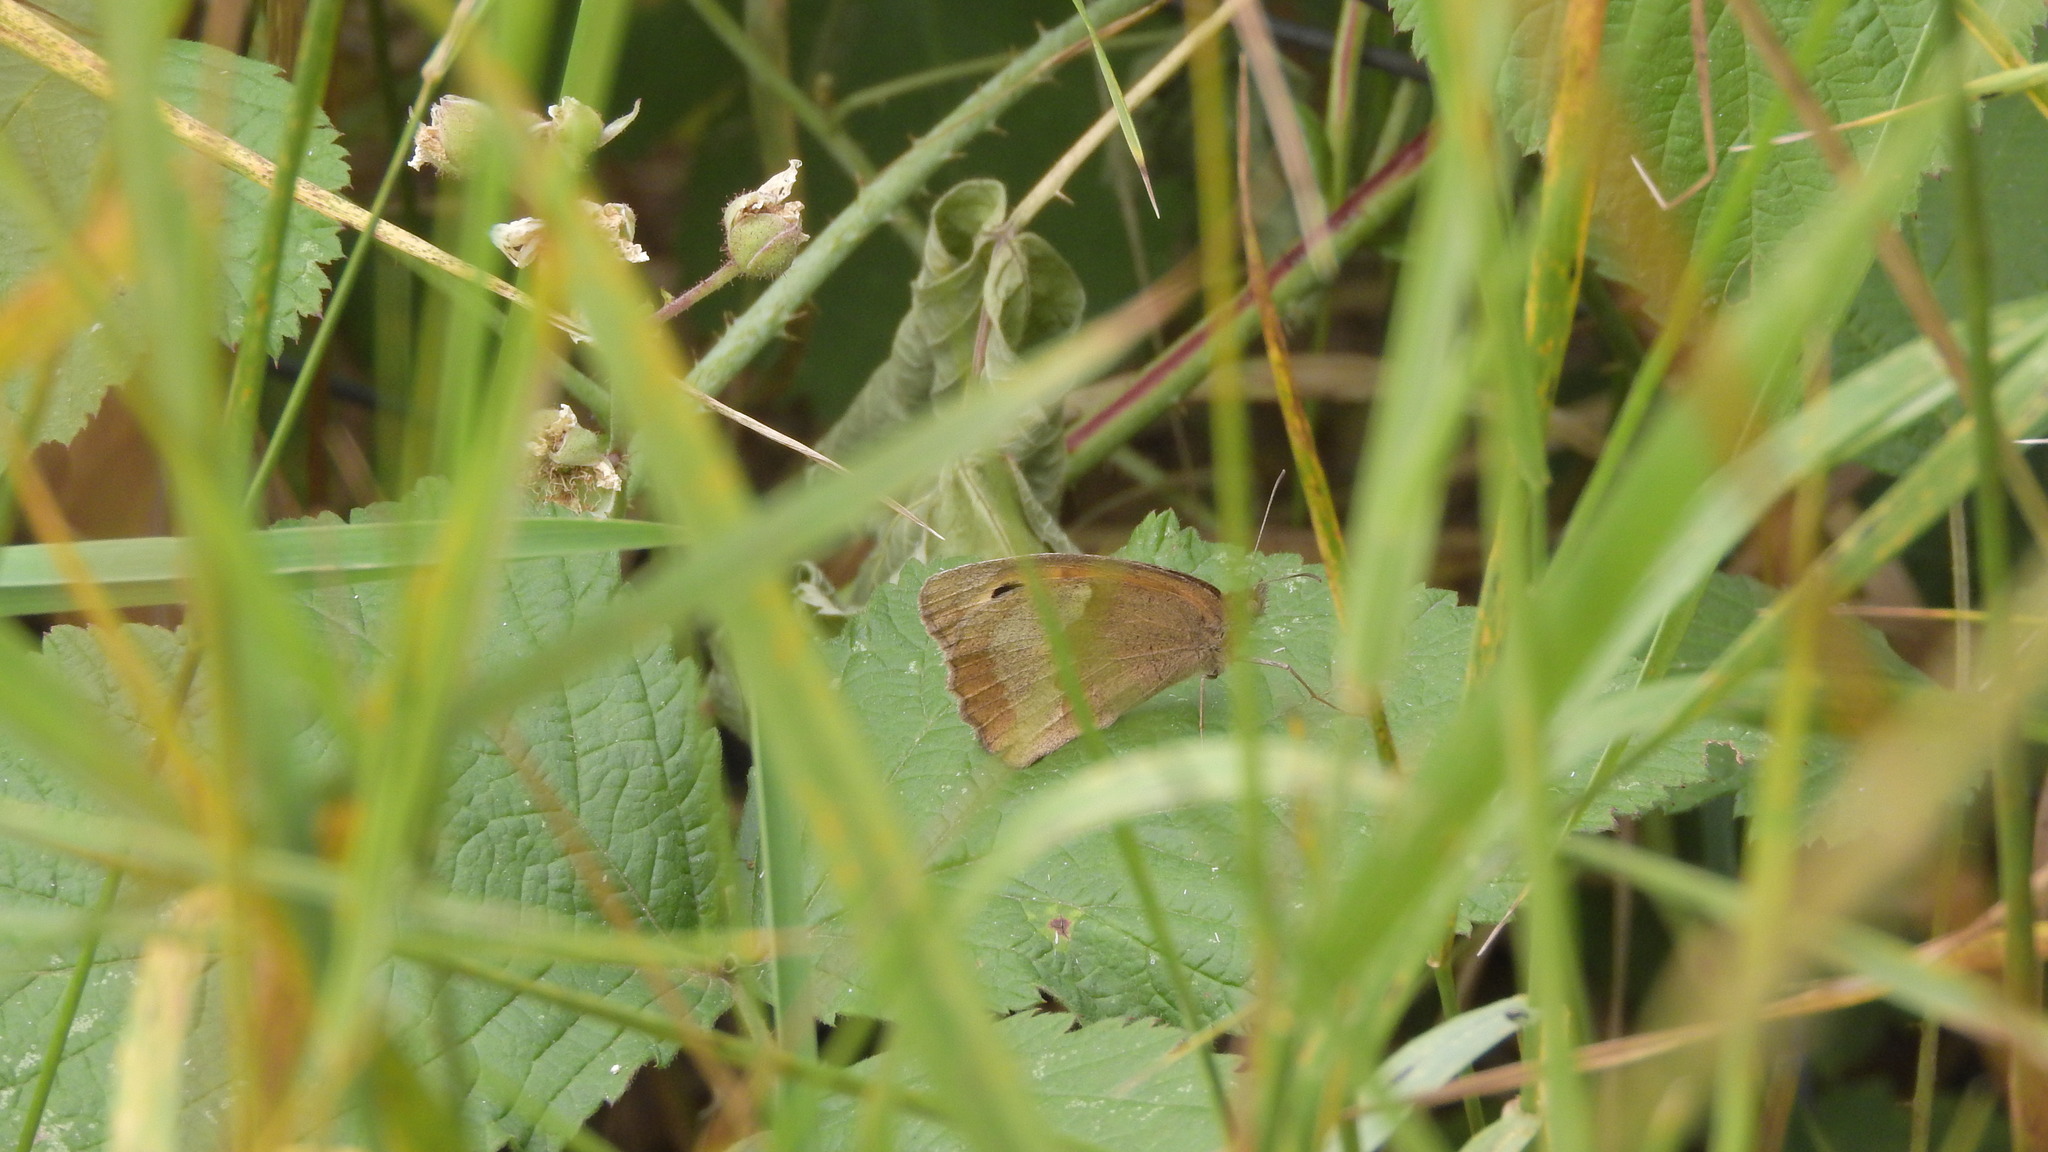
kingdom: Animalia
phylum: Arthropoda
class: Insecta
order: Lepidoptera
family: Nymphalidae
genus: Maniola
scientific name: Maniola jurtina
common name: Meadow brown
